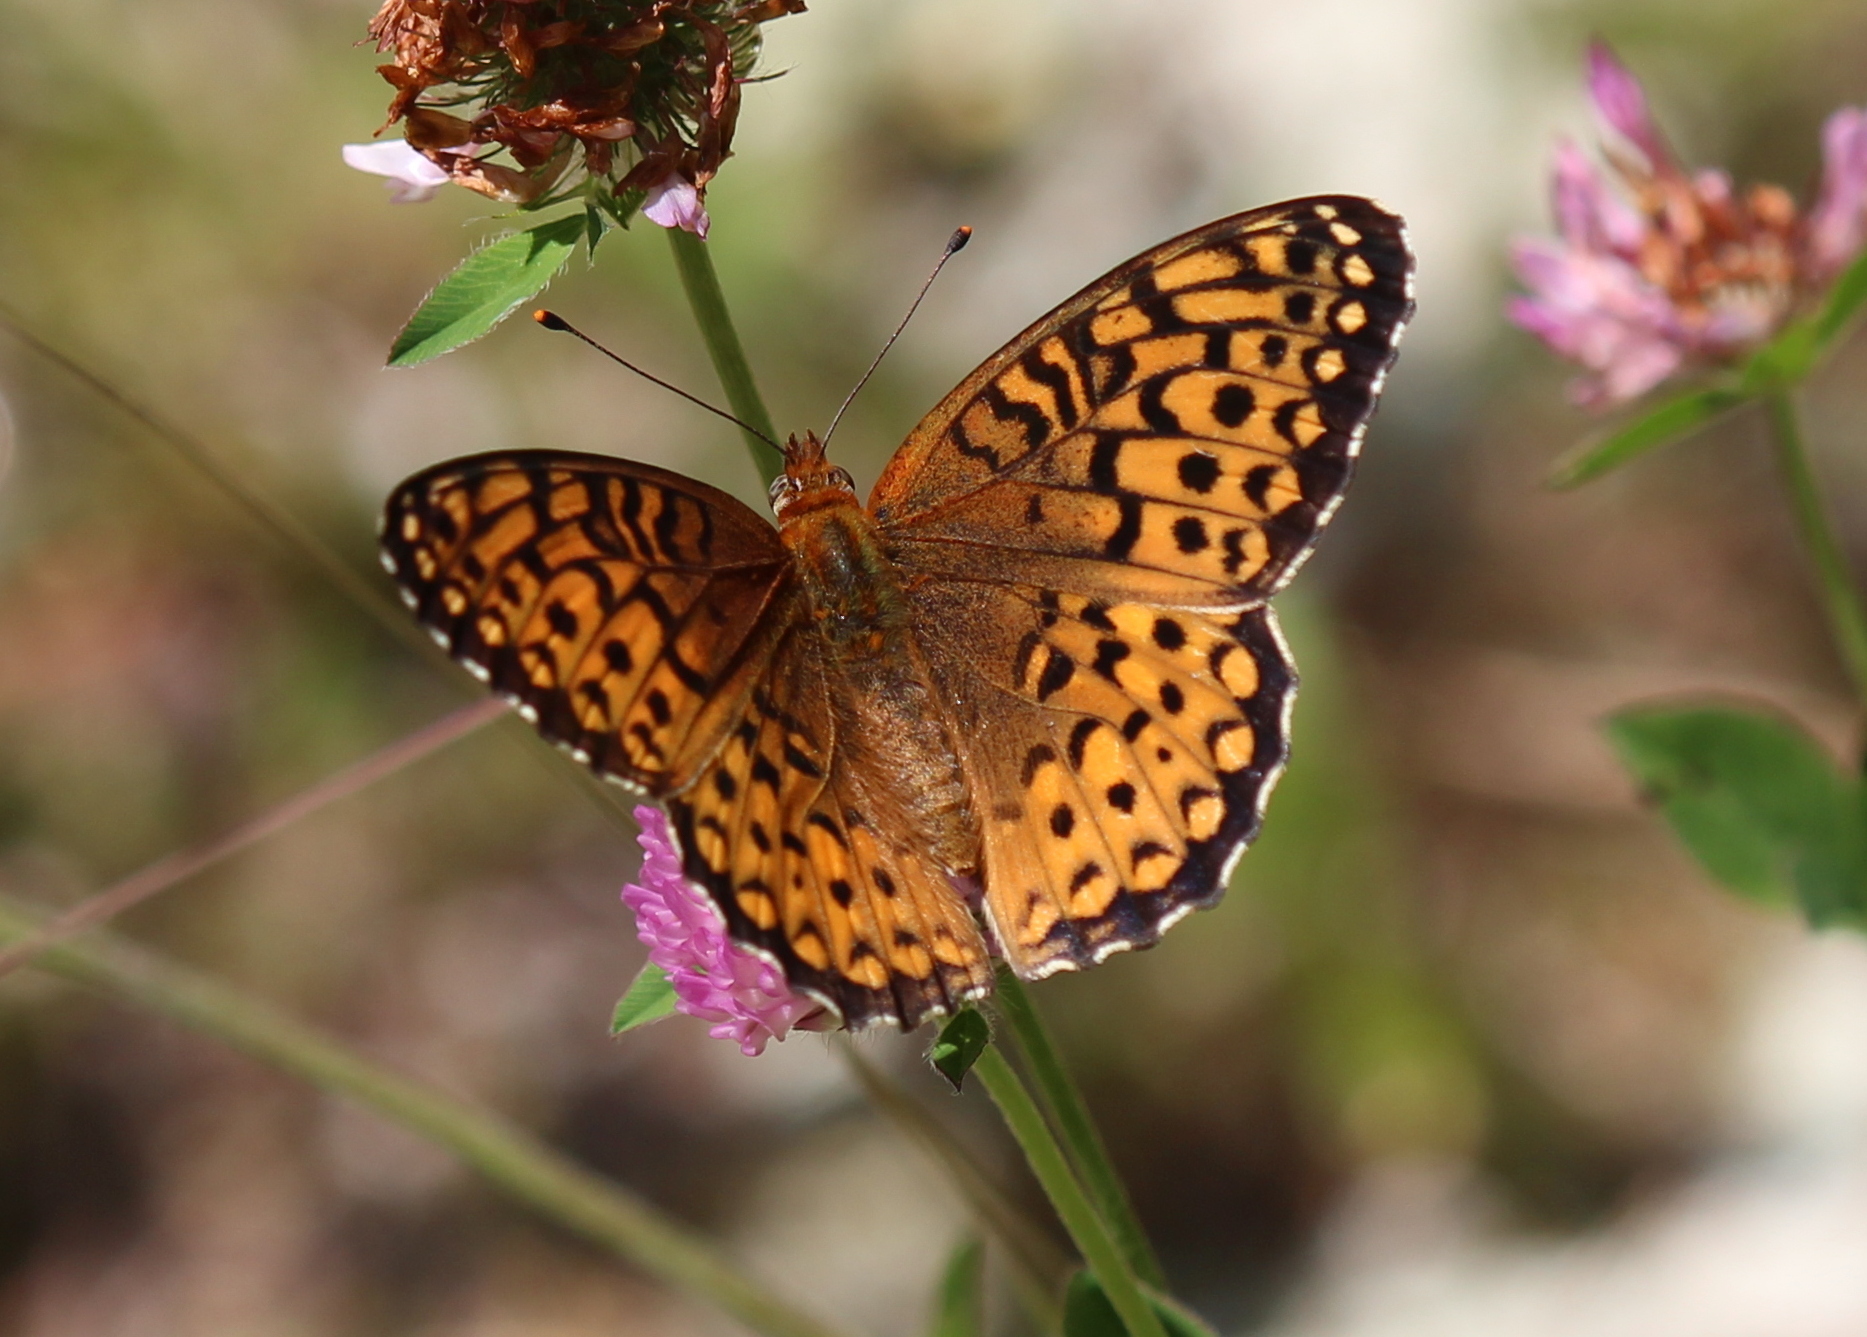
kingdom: Animalia
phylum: Arthropoda
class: Insecta
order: Lepidoptera
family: Nymphalidae
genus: Speyeria
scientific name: Speyeria atlantis
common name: Atlantis fritillary
